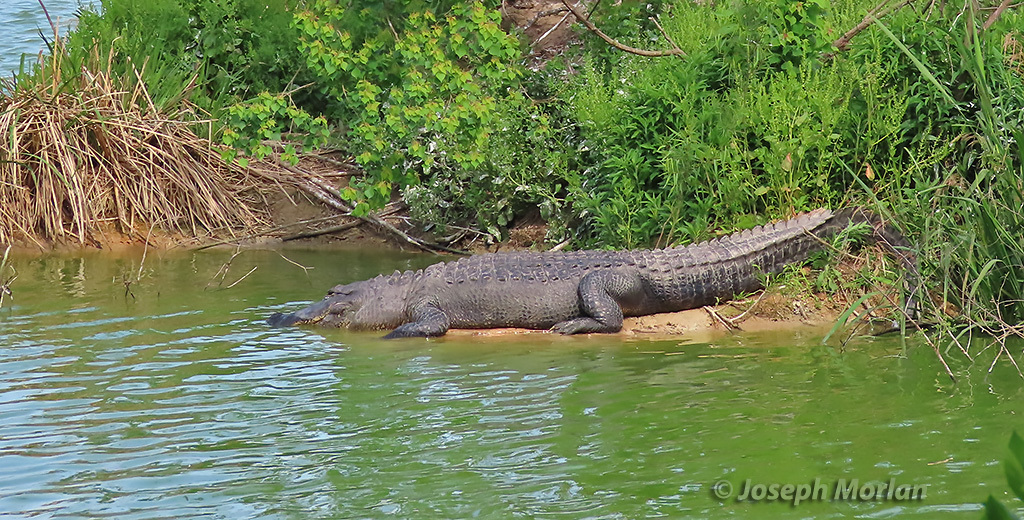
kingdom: Animalia
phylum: Chordata
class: Crocodylia
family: Alligatoridae
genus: Alligator
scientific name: Alligator mississippiensis
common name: American alligator
